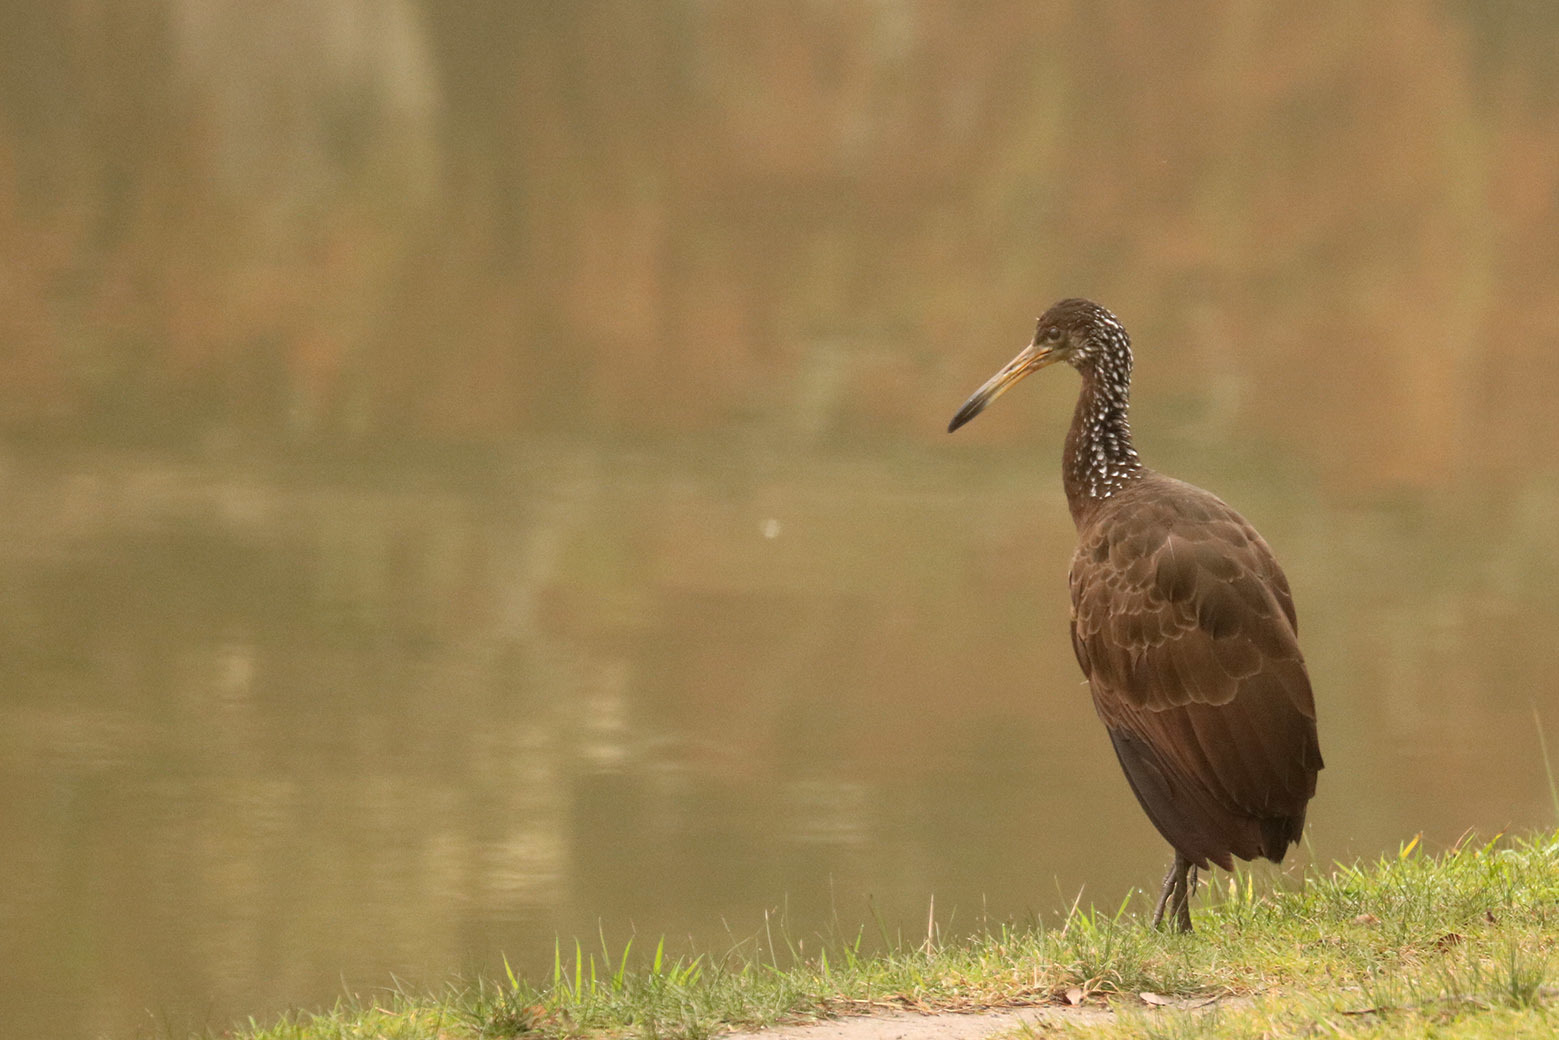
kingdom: Animalia
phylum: Chordata
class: Aves
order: Gruiformes
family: Aramidae
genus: Aramus
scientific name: Aramus guarauna
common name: Limpkin
